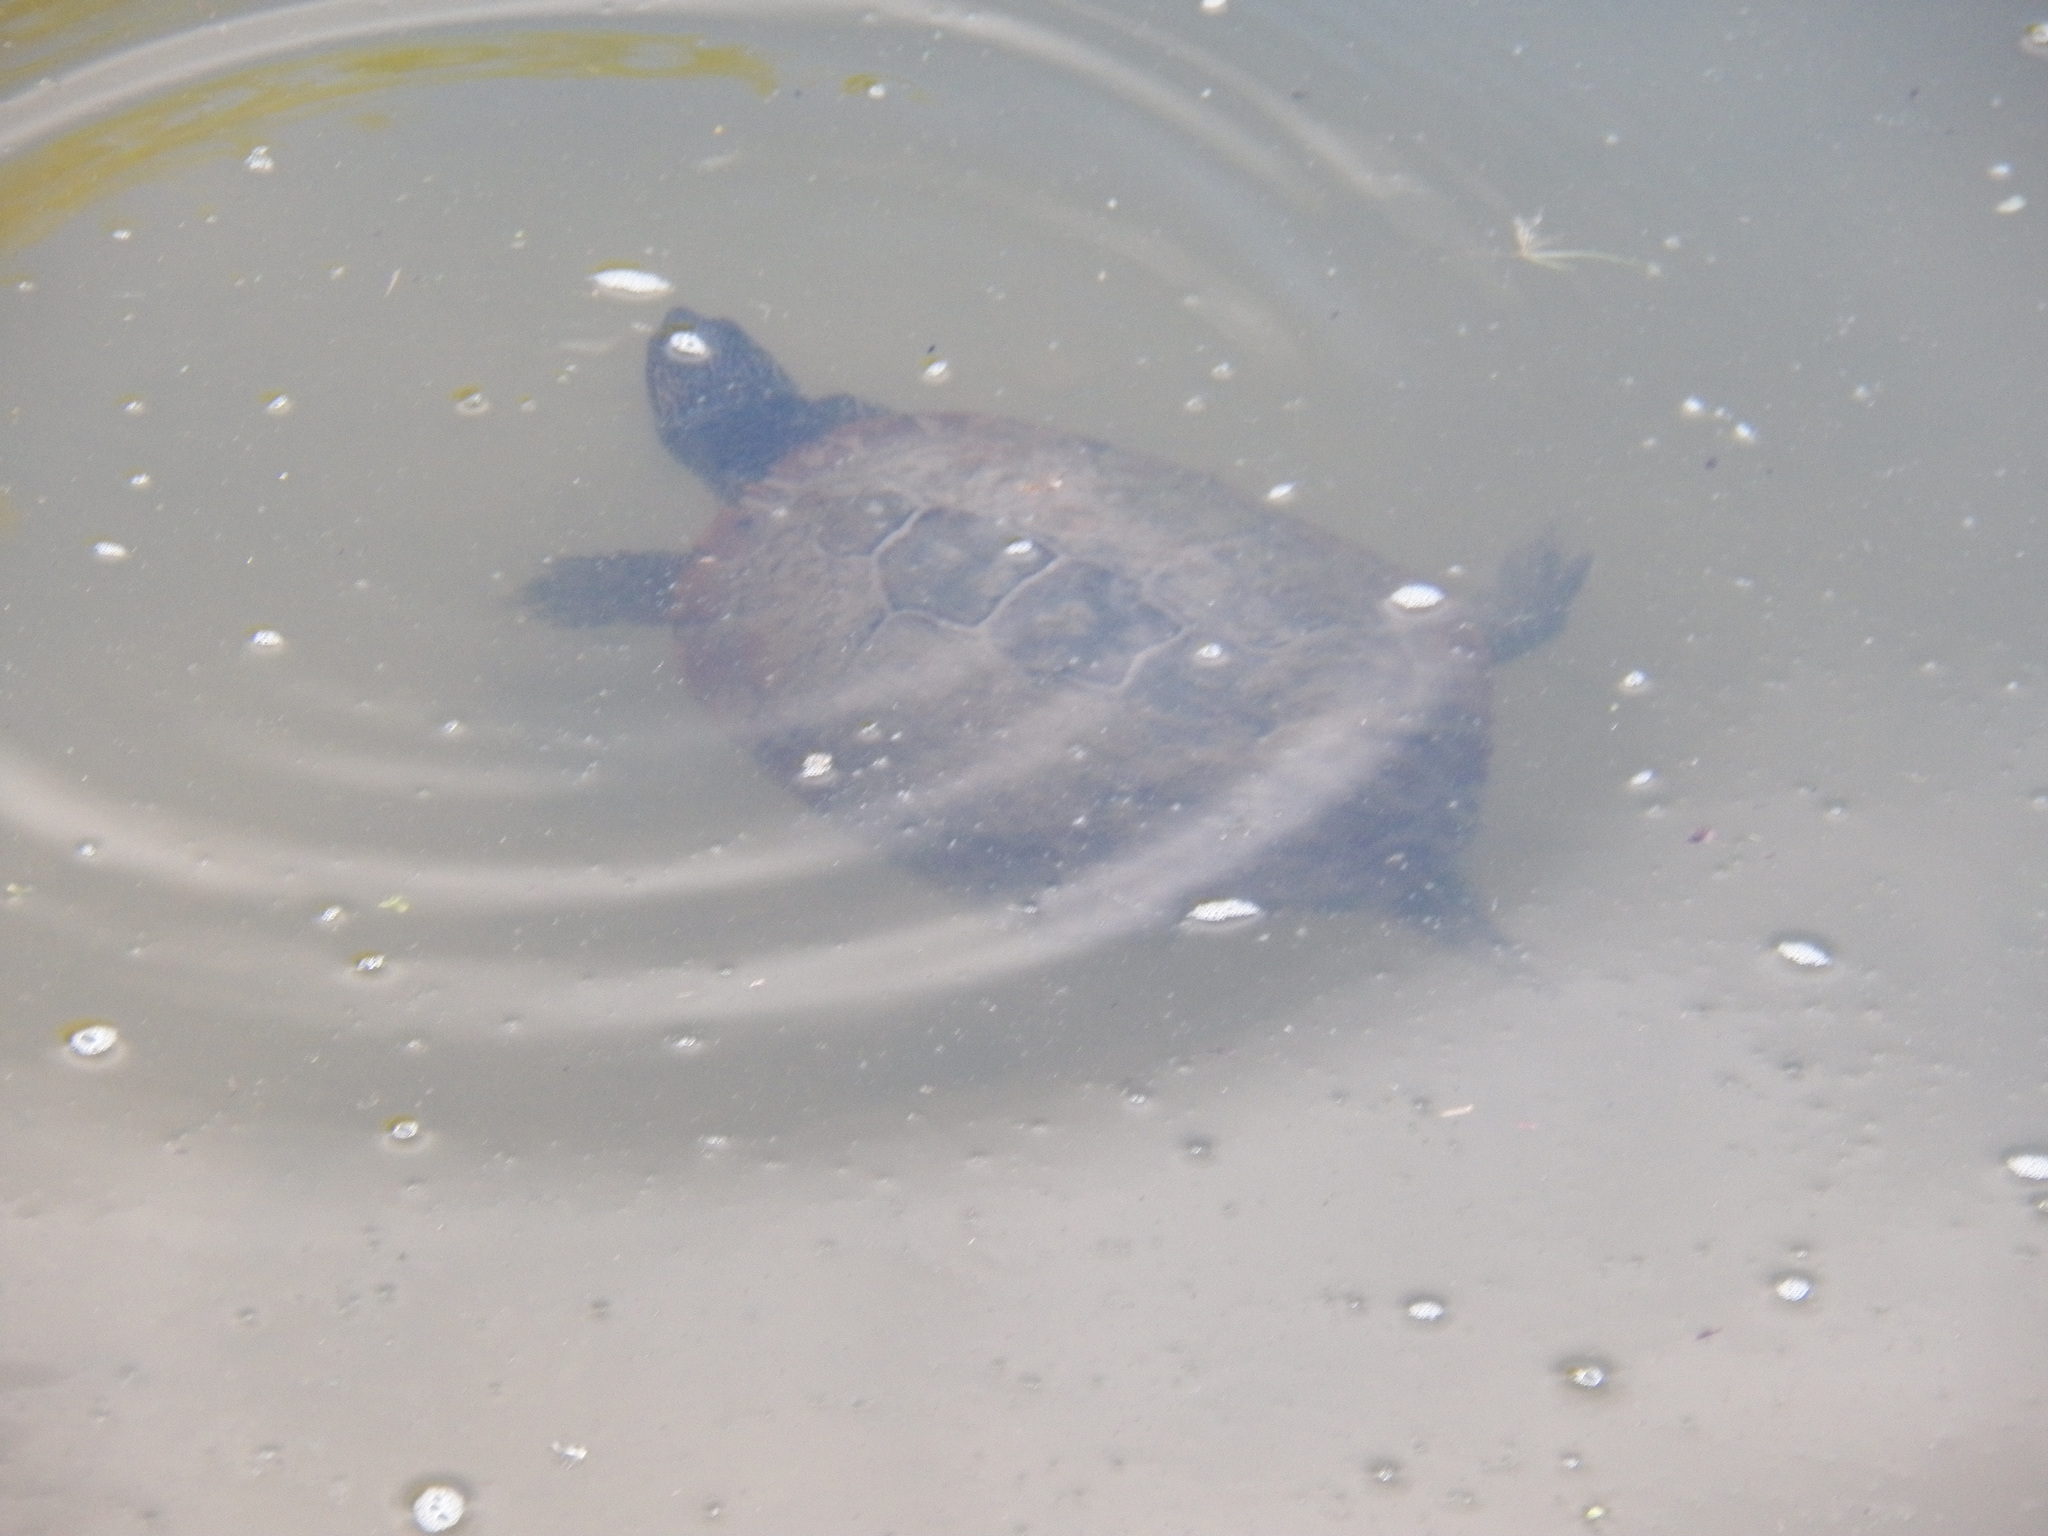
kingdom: Animalia
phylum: Chordata
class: Testudines
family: Emydidae
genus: Trachemys
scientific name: Trachemys scripta
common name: Slider
